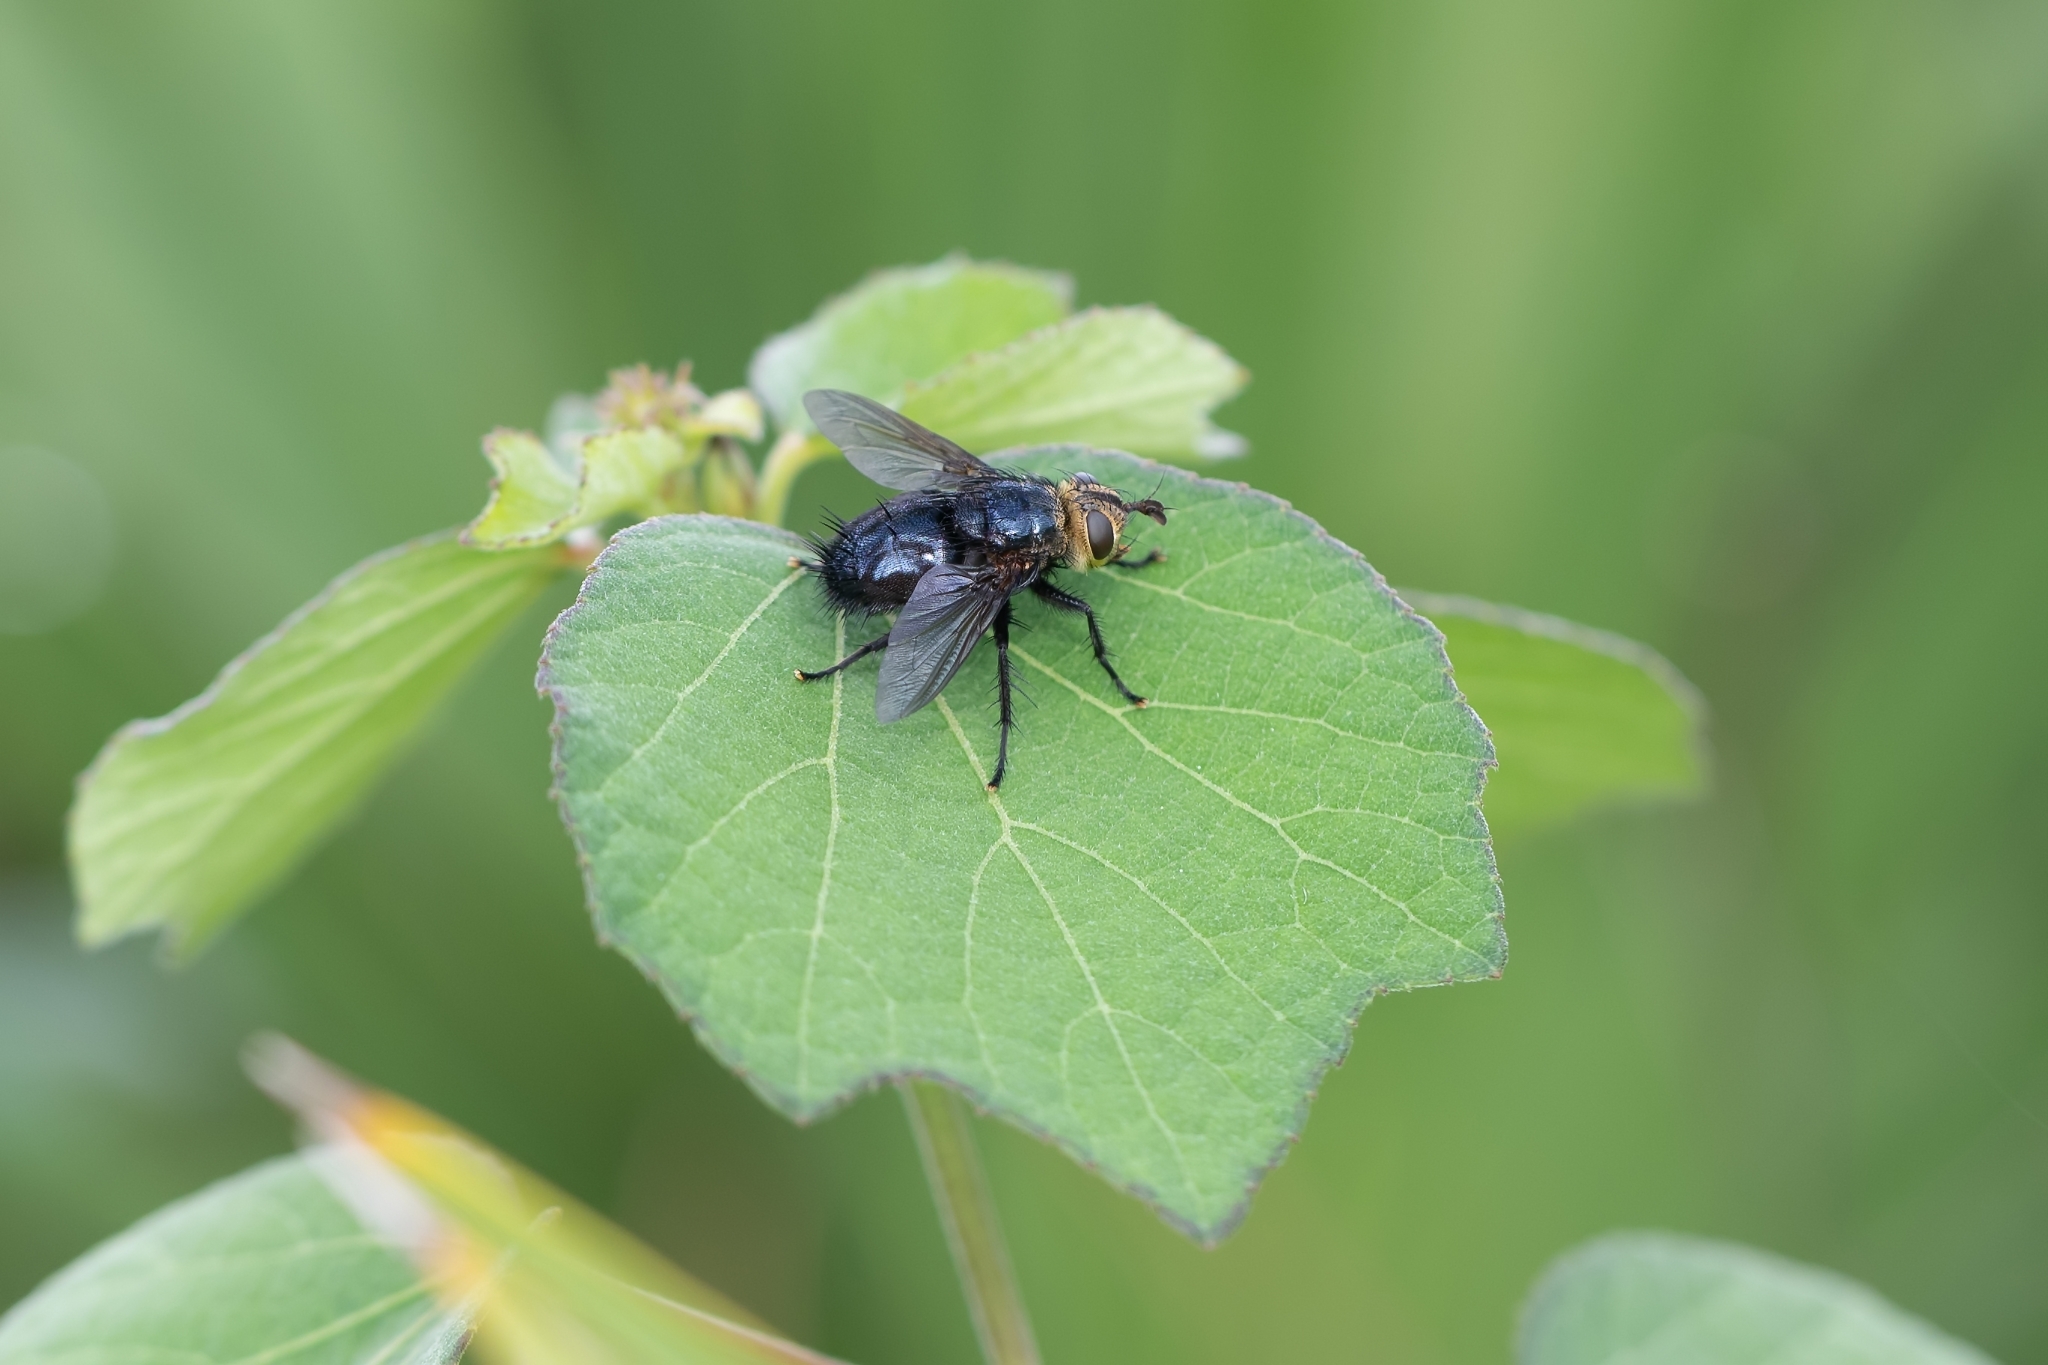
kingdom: Animalia
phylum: Arthropoda
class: Insecta
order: Diptera
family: Tachinidae
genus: Archytas
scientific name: Archytas metallicus
